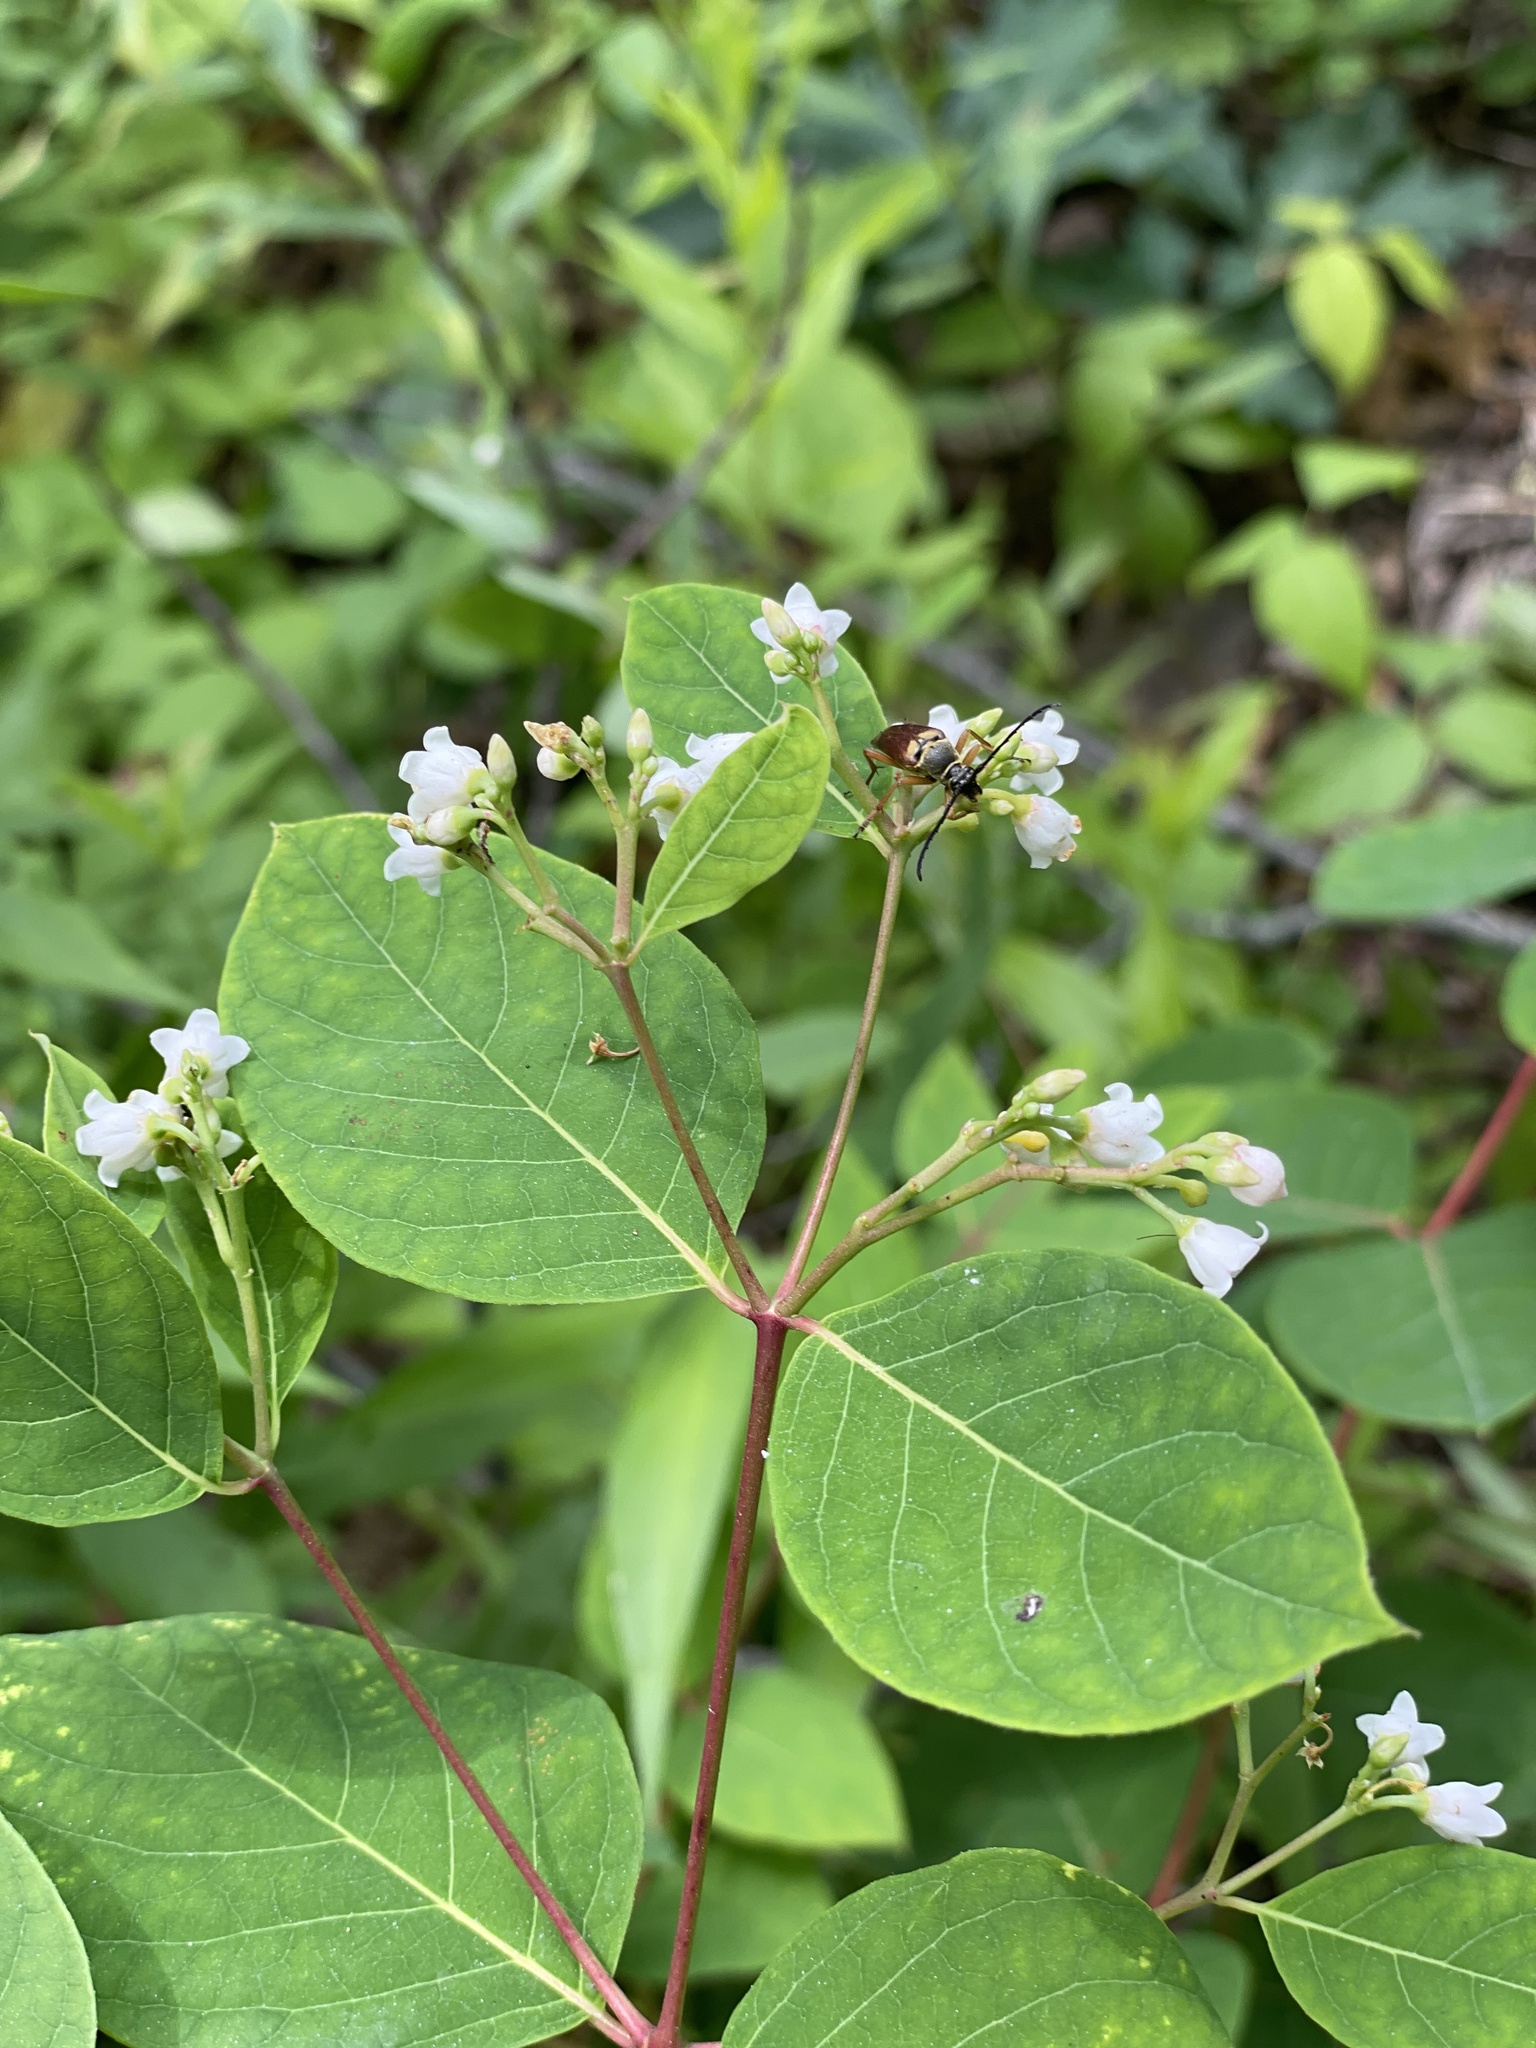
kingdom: Plantae
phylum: Tracheophyta
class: Magnoliopsida
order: Gentianales
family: Apocynaceae
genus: Apocynum
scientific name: Apocynum androsaemifolium
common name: Spreading dogbane
